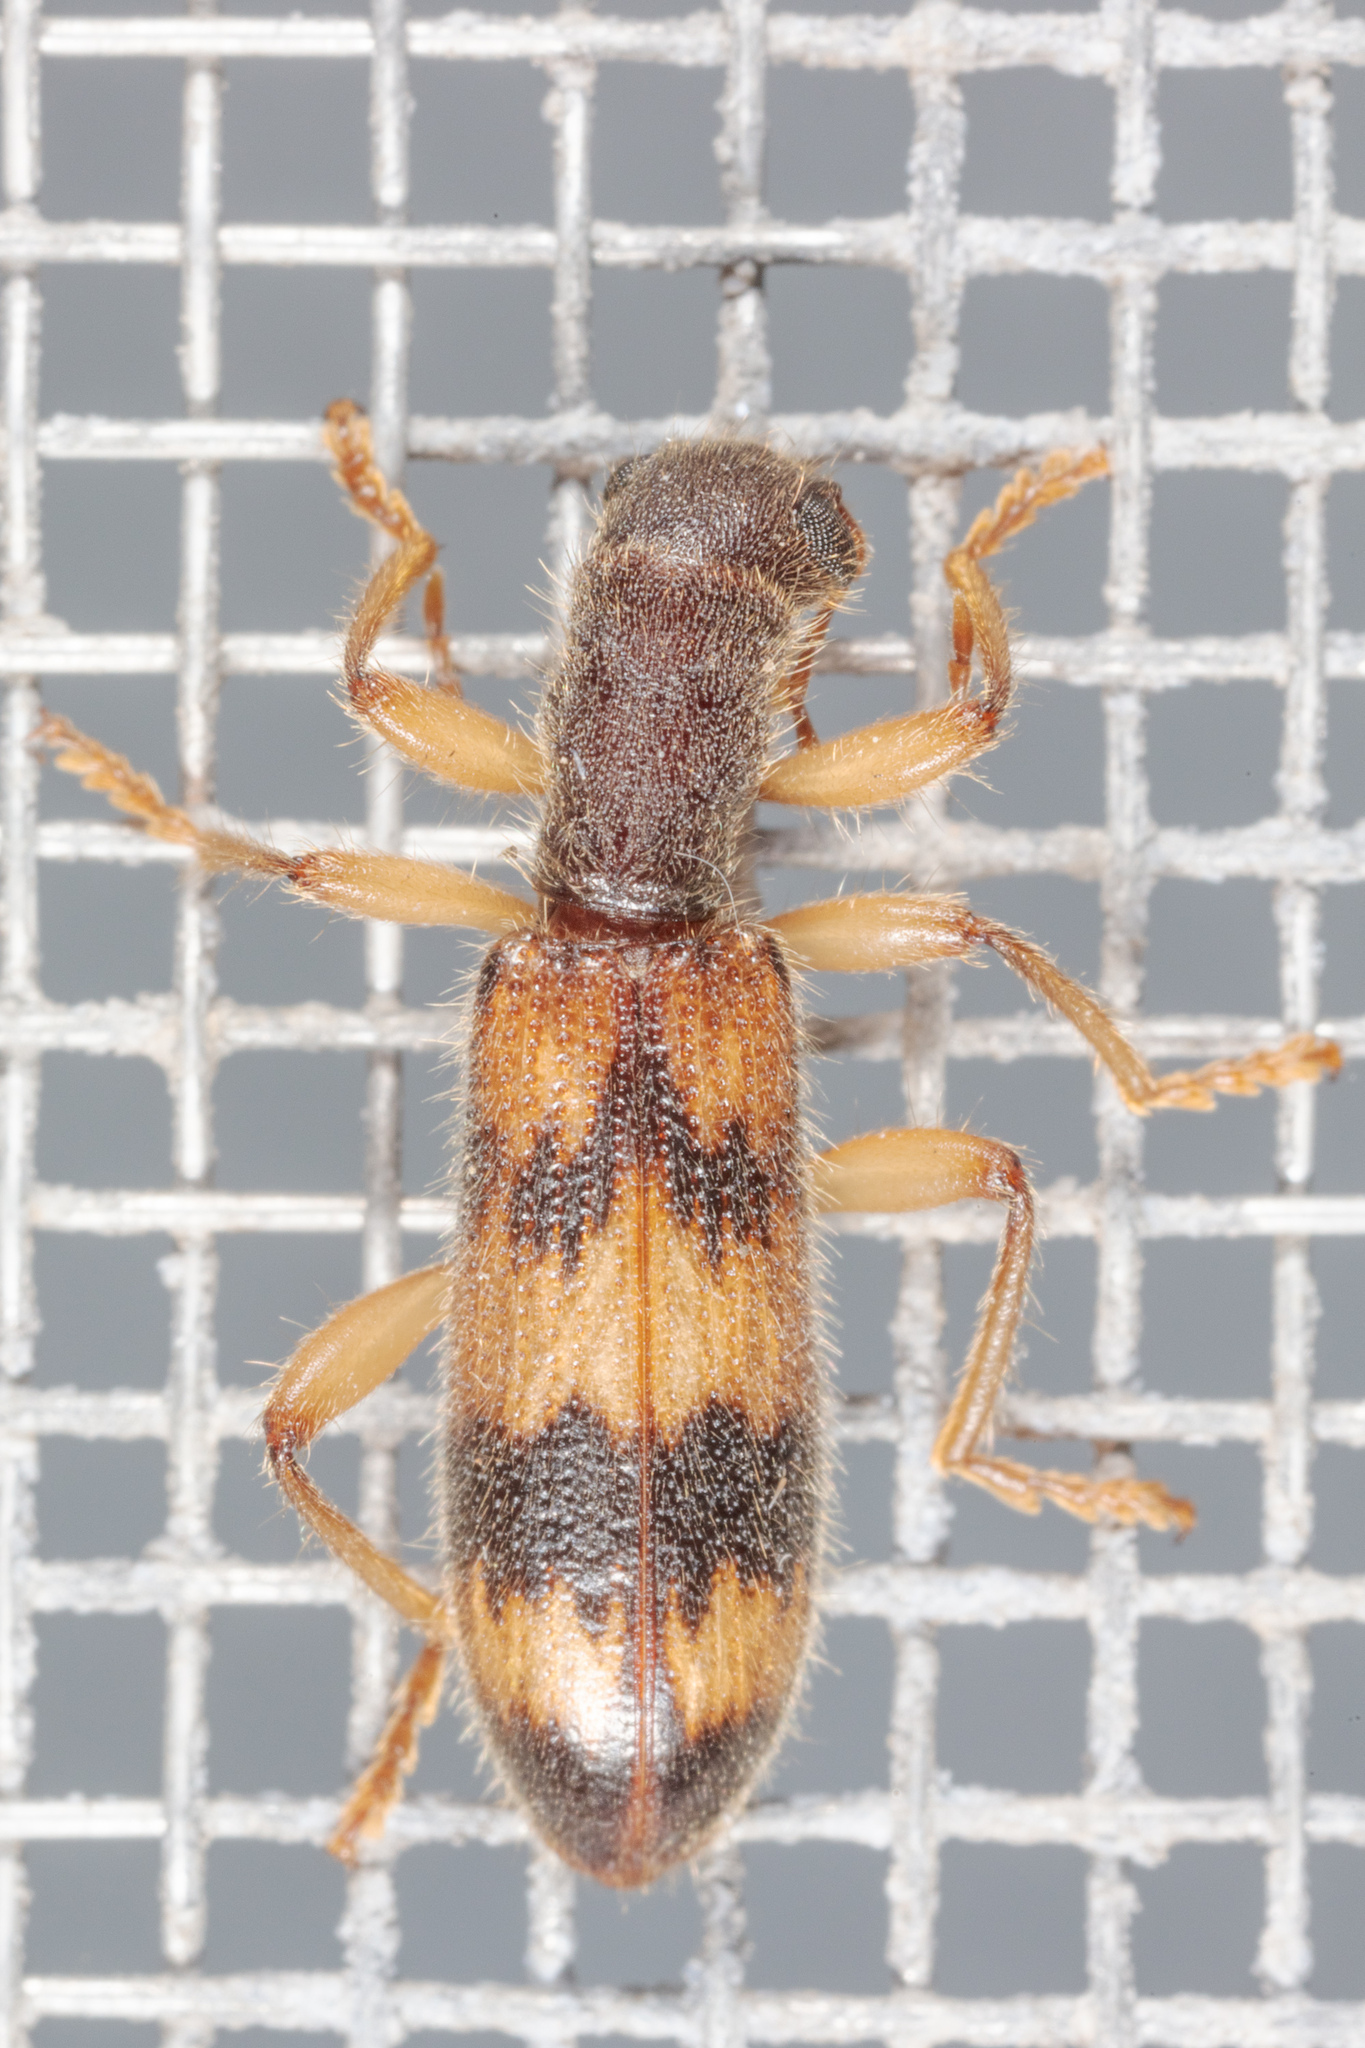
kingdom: Animalia
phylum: Arthropoda
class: Insecta
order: Coleoptera
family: Cleridae
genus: Cymatodera
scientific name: Cymatodera undulata
